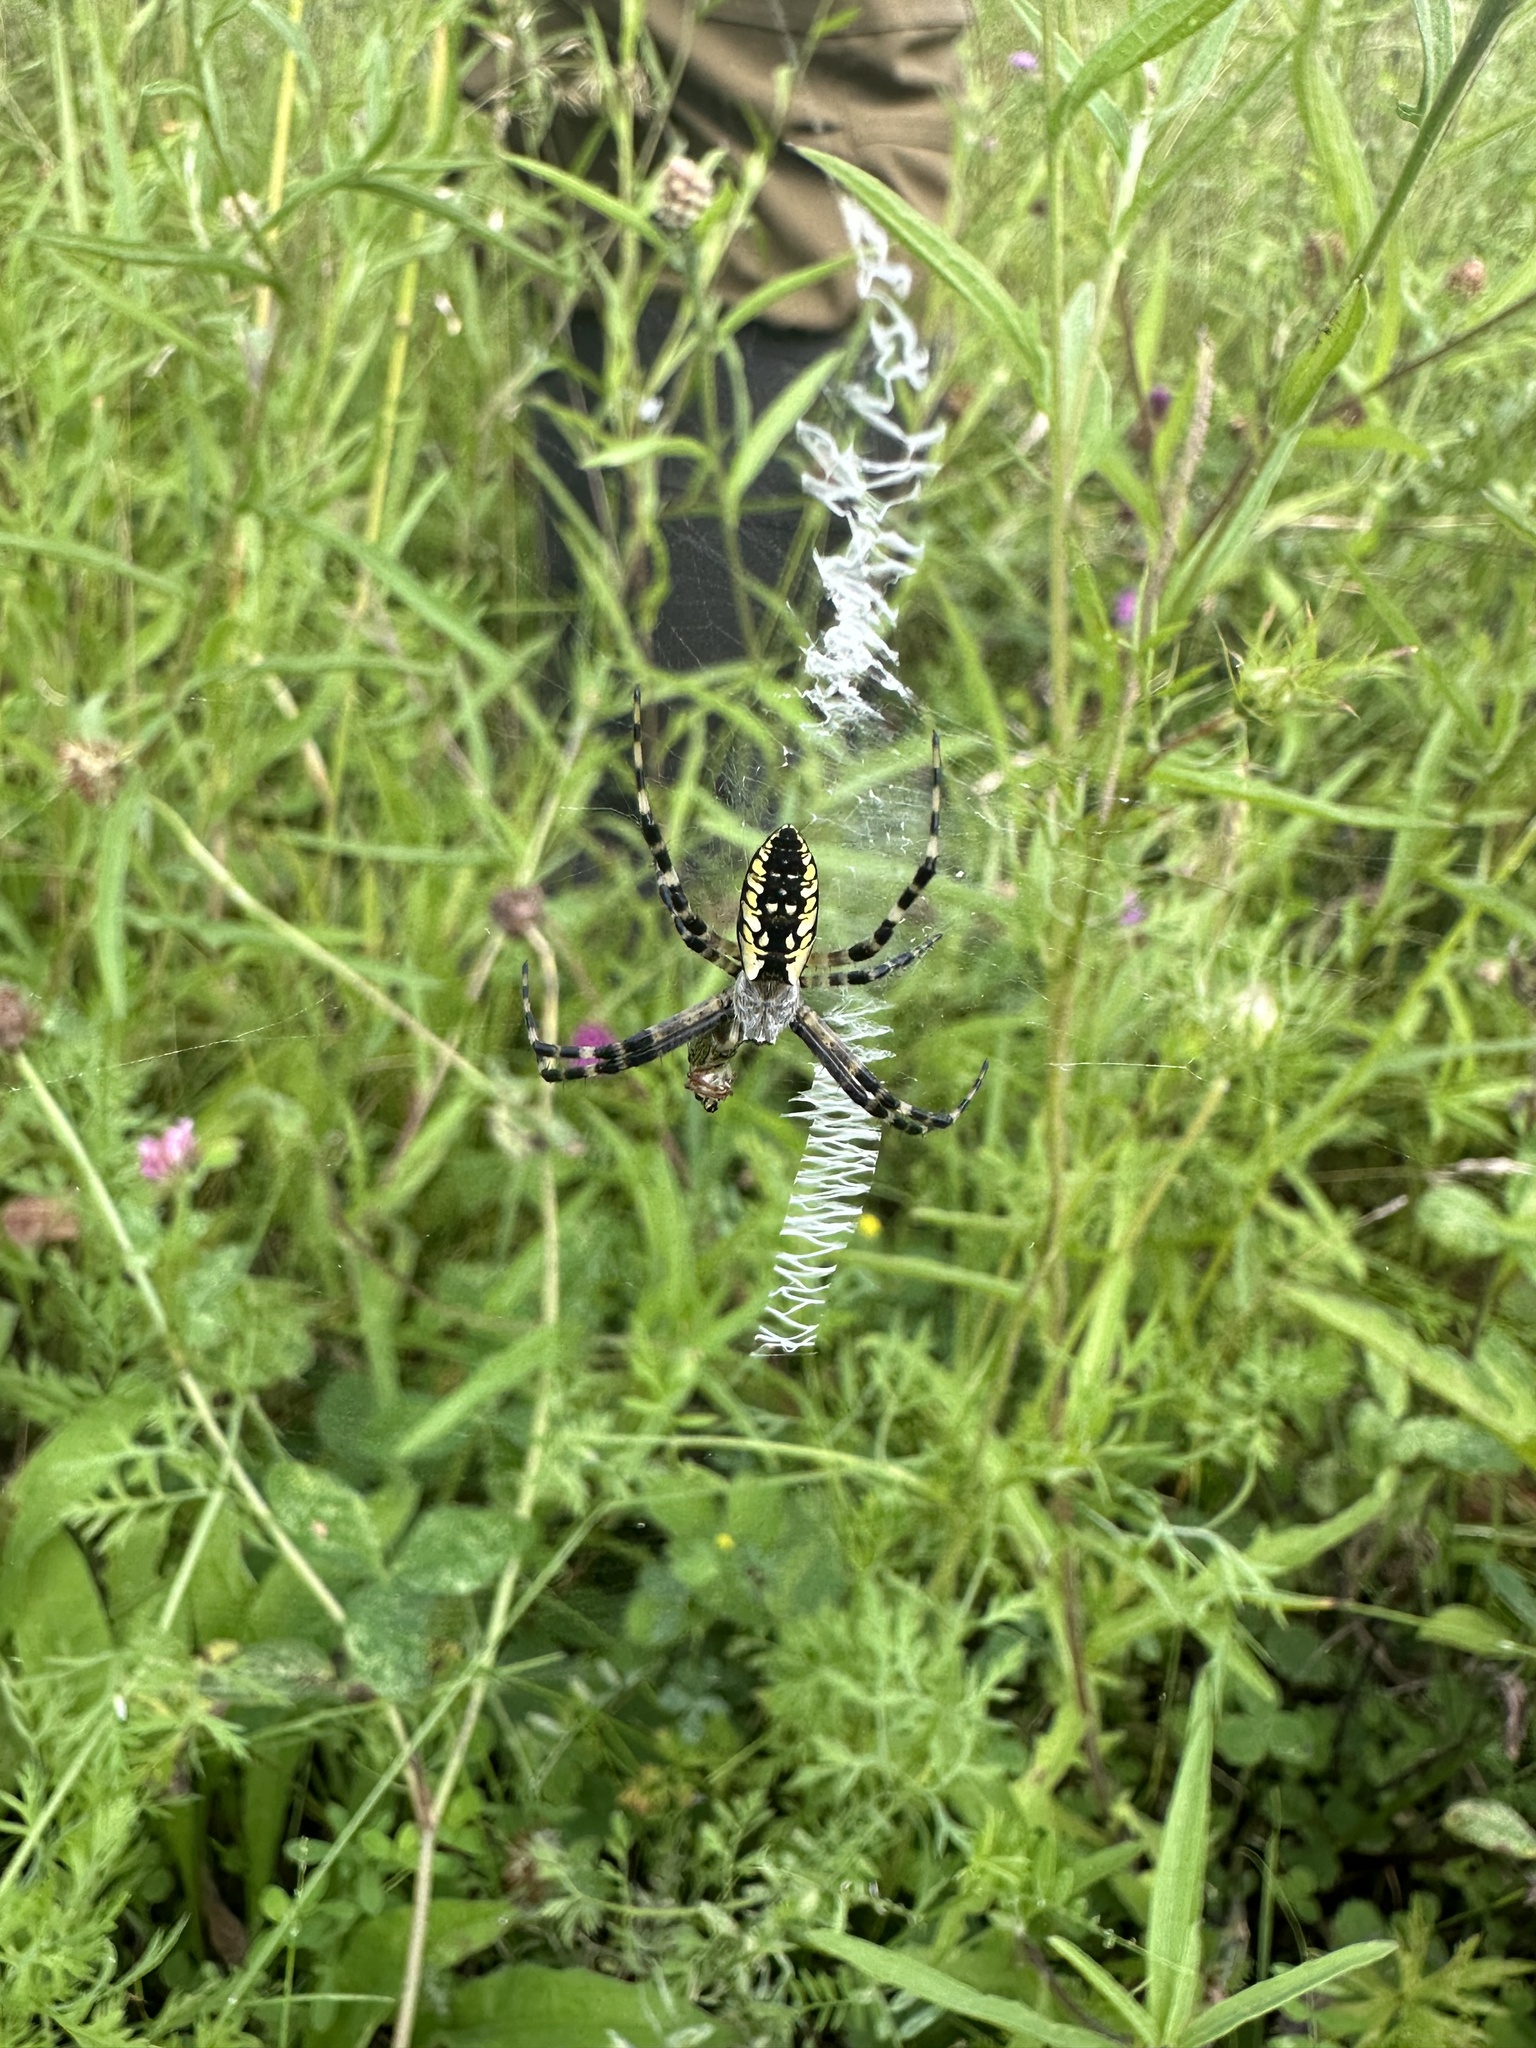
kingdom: Animalia
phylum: Arthropoda
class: Arachnida
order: Araneae
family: Araneidae
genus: Argiope
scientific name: Argiope aurantia
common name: Orb weavers
